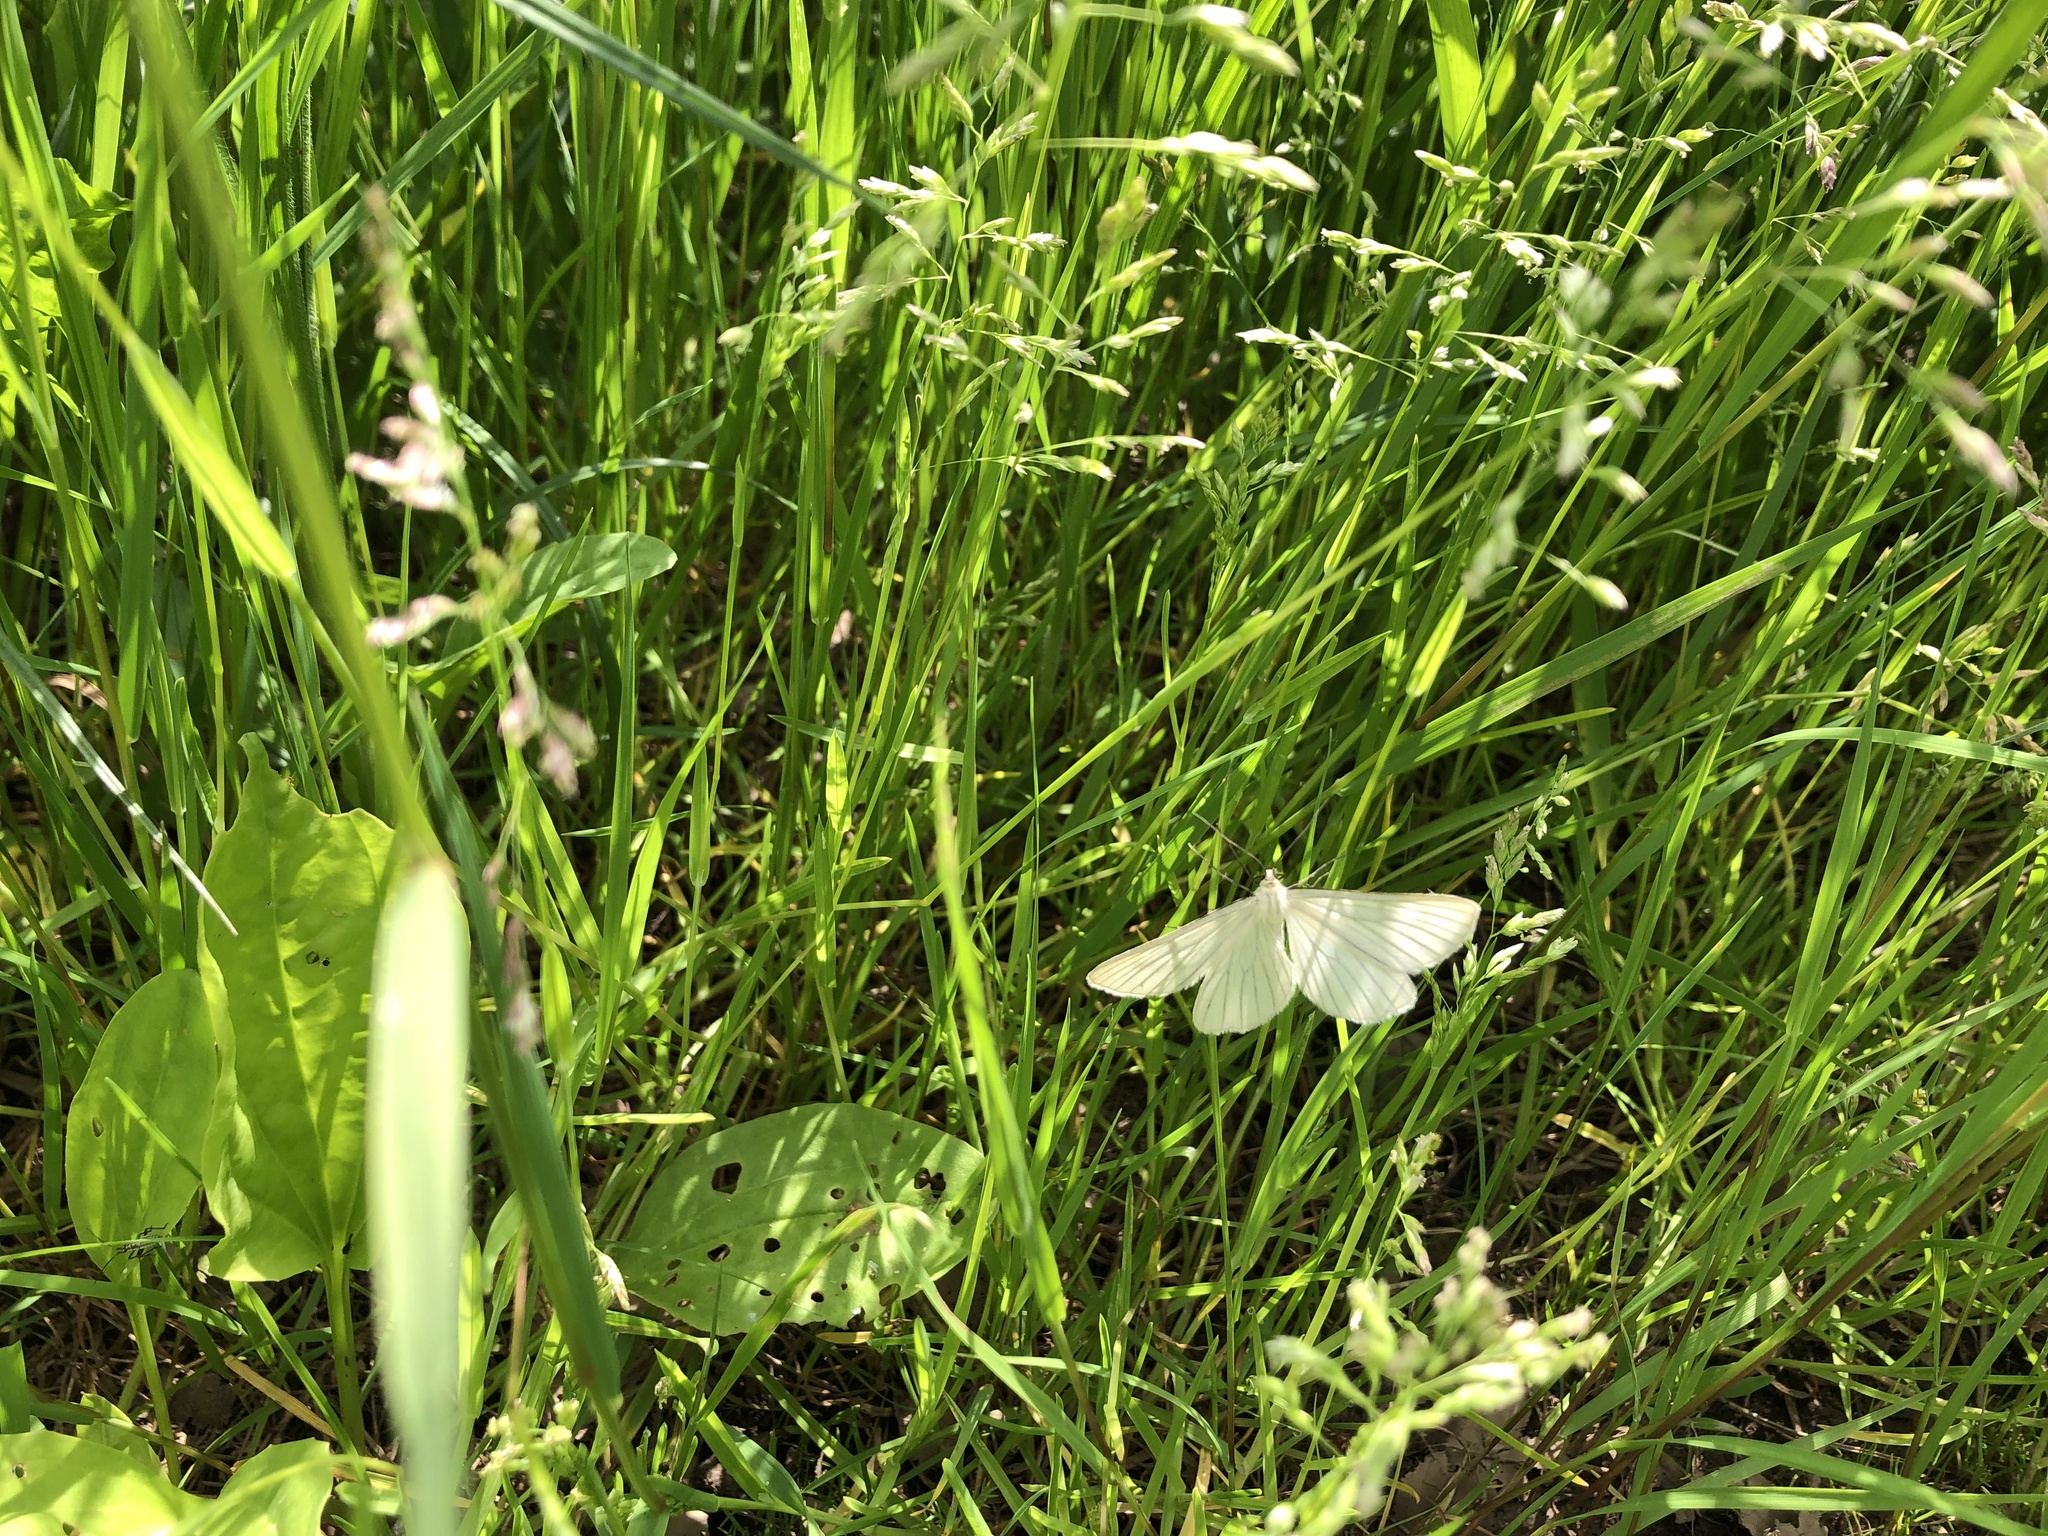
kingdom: Animalia
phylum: Arthropoda
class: Insecta
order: Lepidoptera
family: Geometridae
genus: Siona
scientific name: Siona lineata
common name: Black-veined moth
